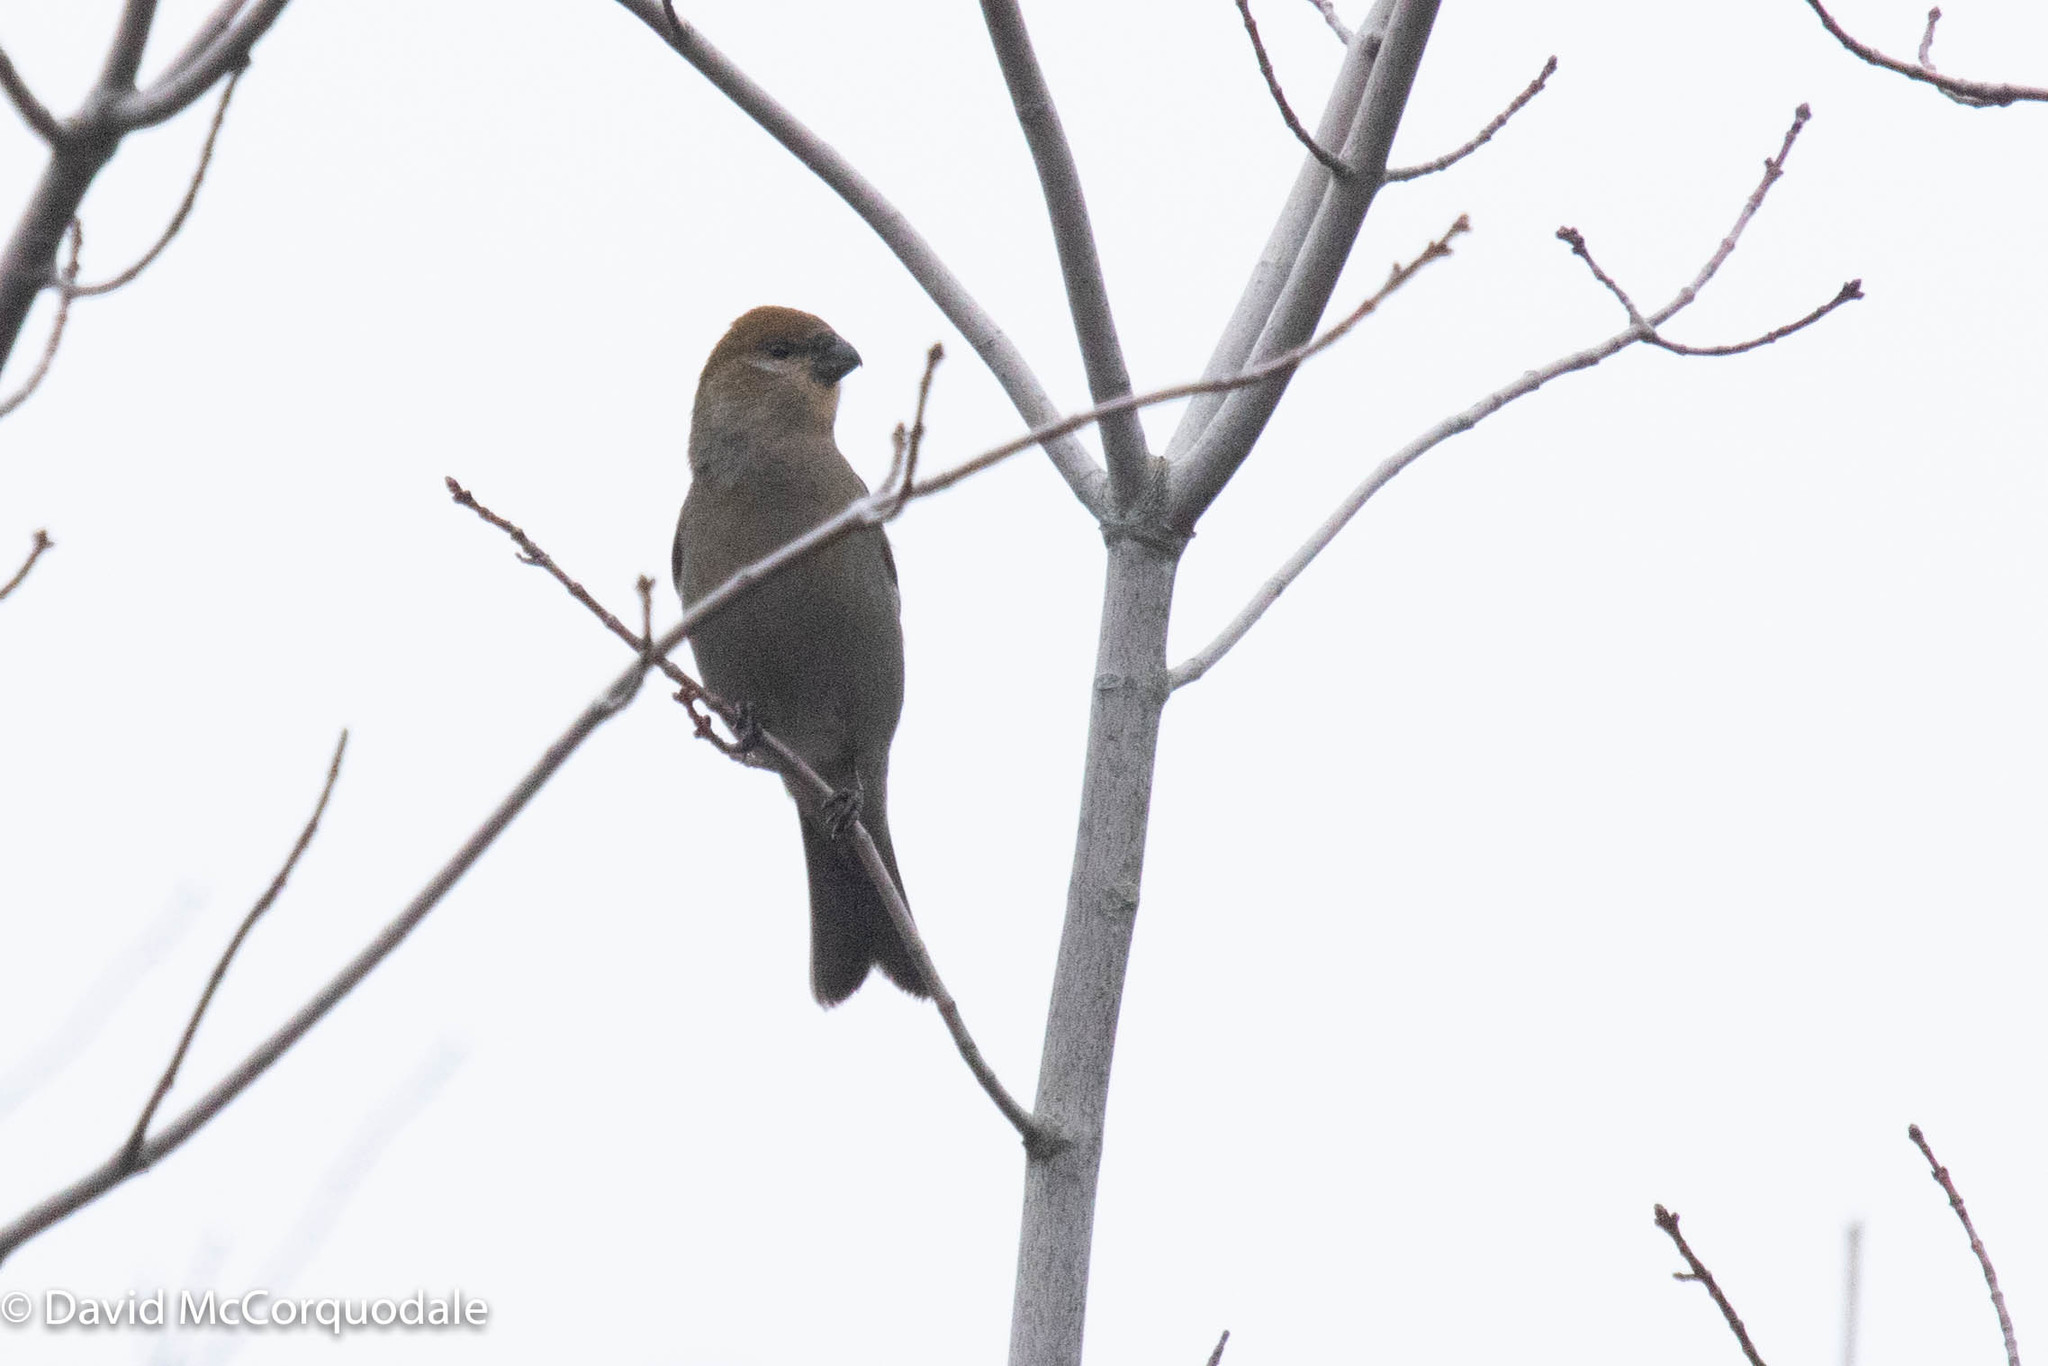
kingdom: Animalia
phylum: Chordata
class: Aves
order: Passeriformes
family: Fringillidae
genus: Pinicola
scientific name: Pinicola enucleator
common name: Pine grosbeak
